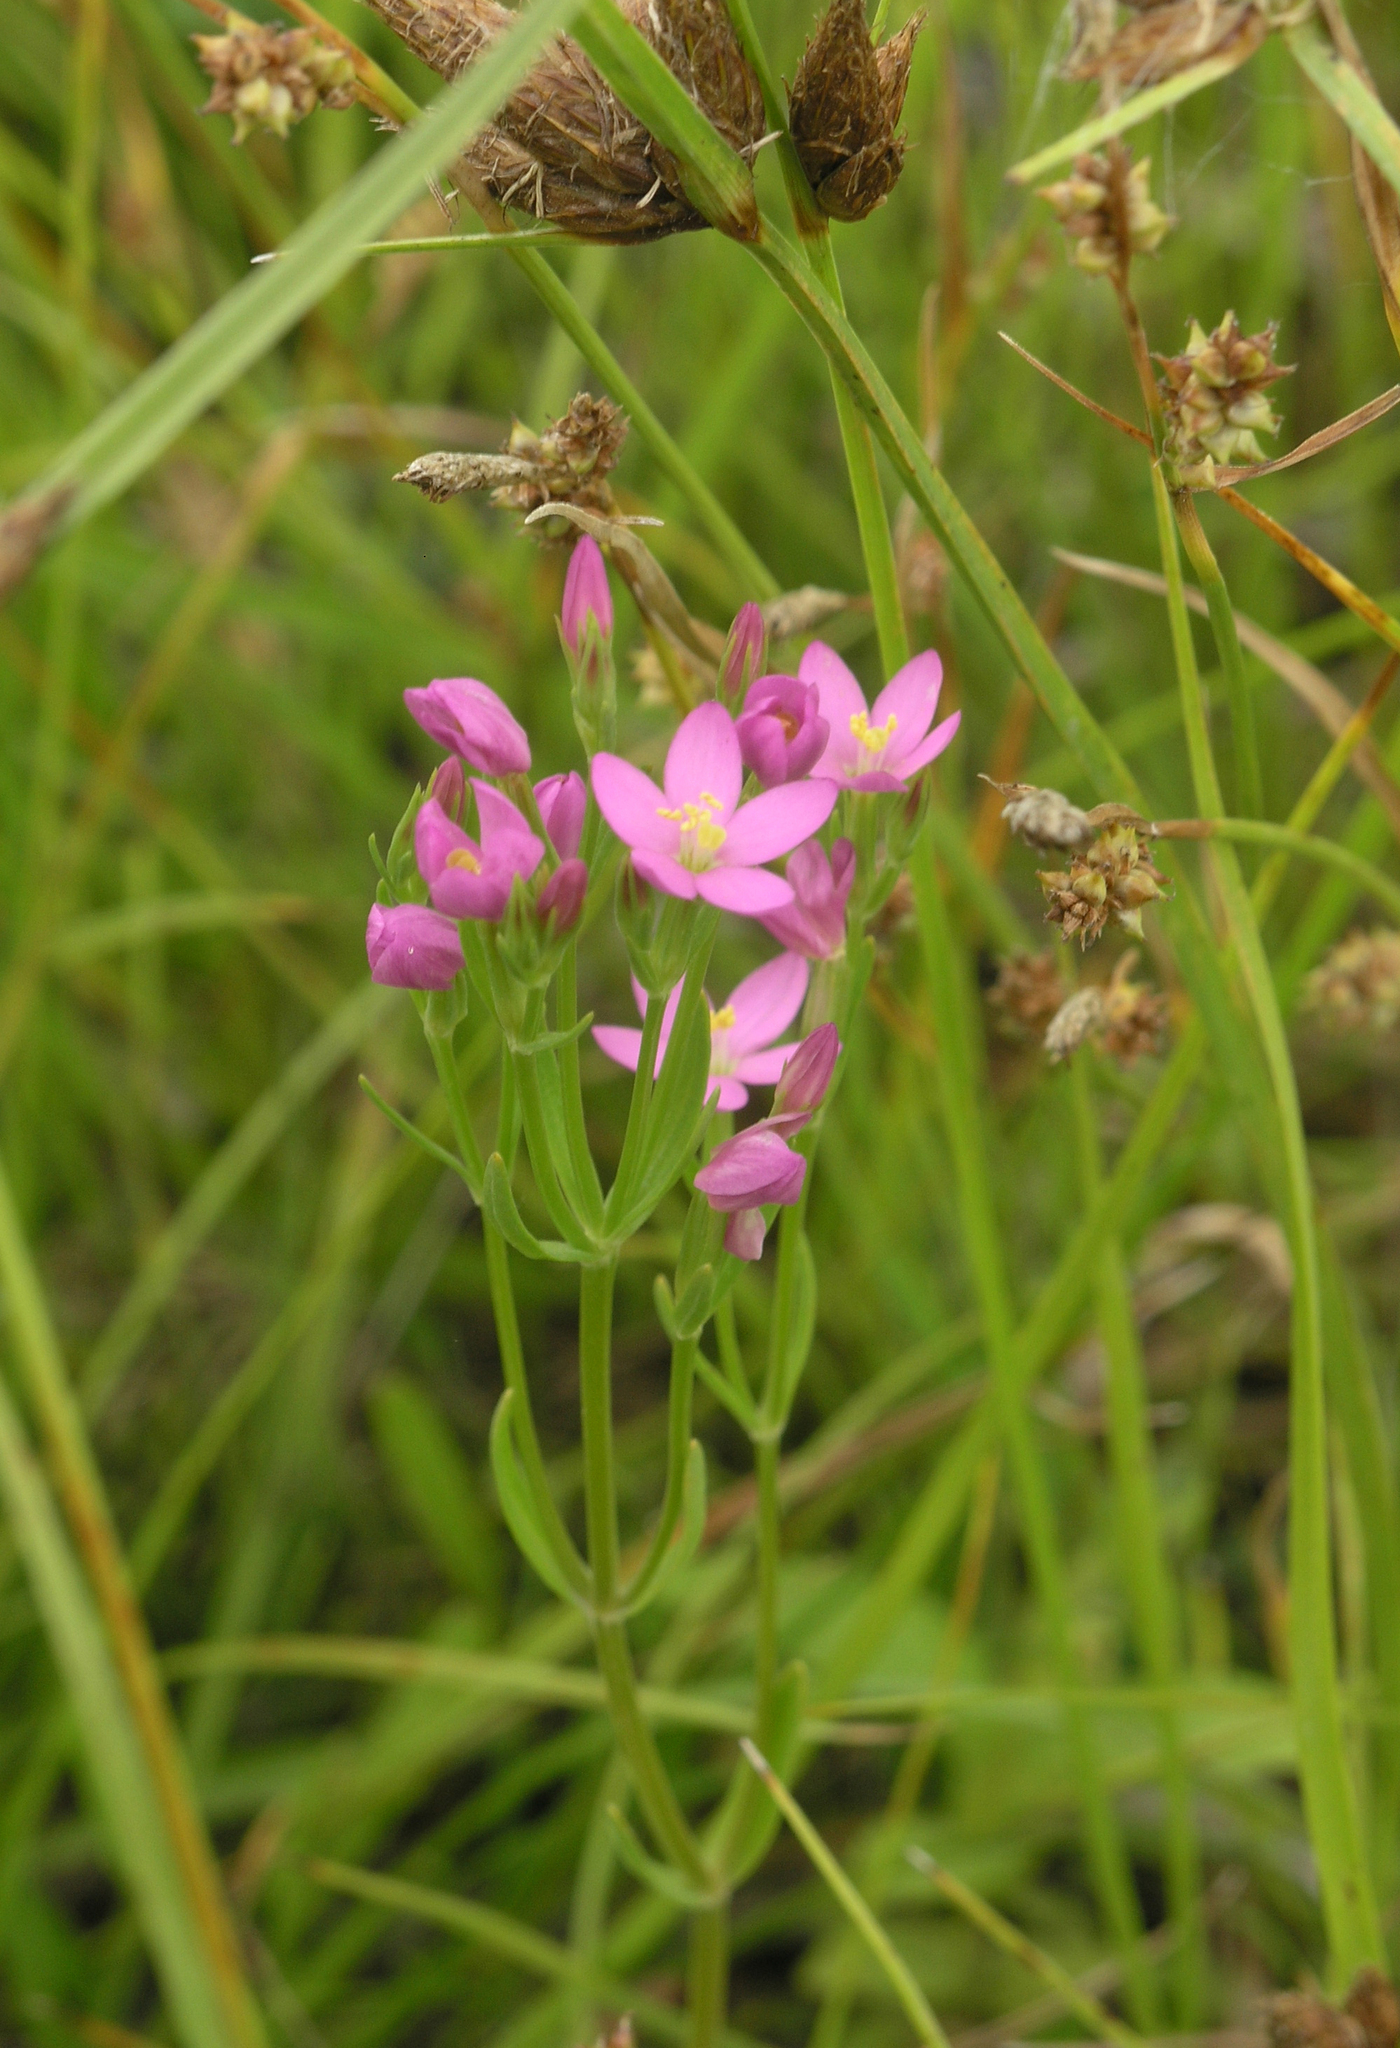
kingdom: Plantae
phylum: Tracheophyta
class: Magnoliopsida
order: Gentianales
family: Gentianaceae
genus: Centaurium
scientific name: Centaurium pulchellum
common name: Lesser centaury
